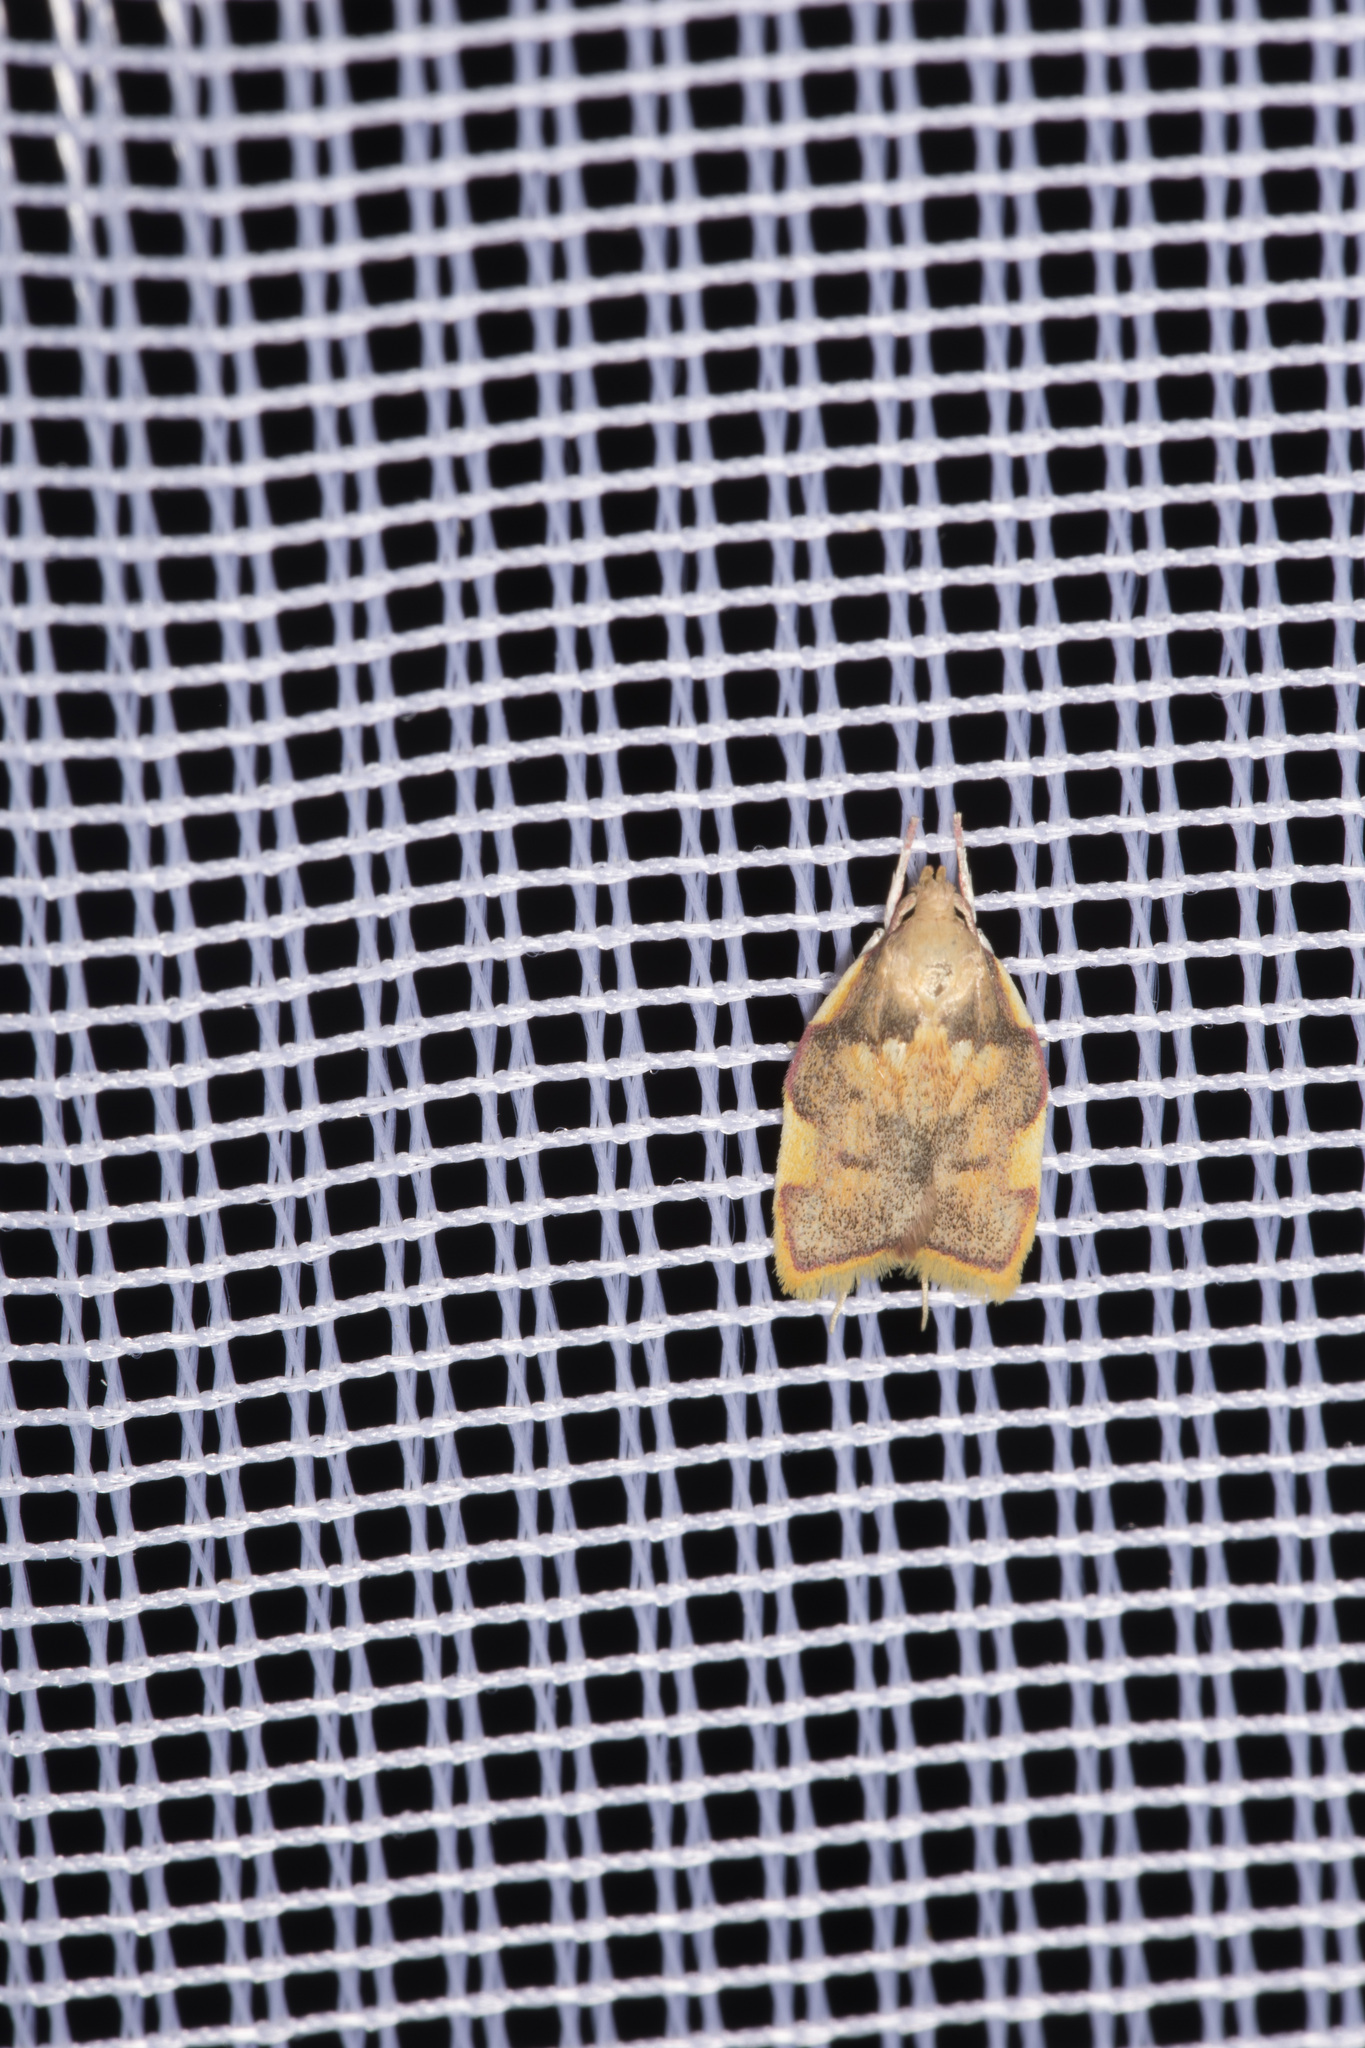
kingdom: Animalia
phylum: Arthropoda
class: Insecta
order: Lepidoptera
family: Peleopodidae
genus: Carcina
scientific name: Carcina quercana
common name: Moth
